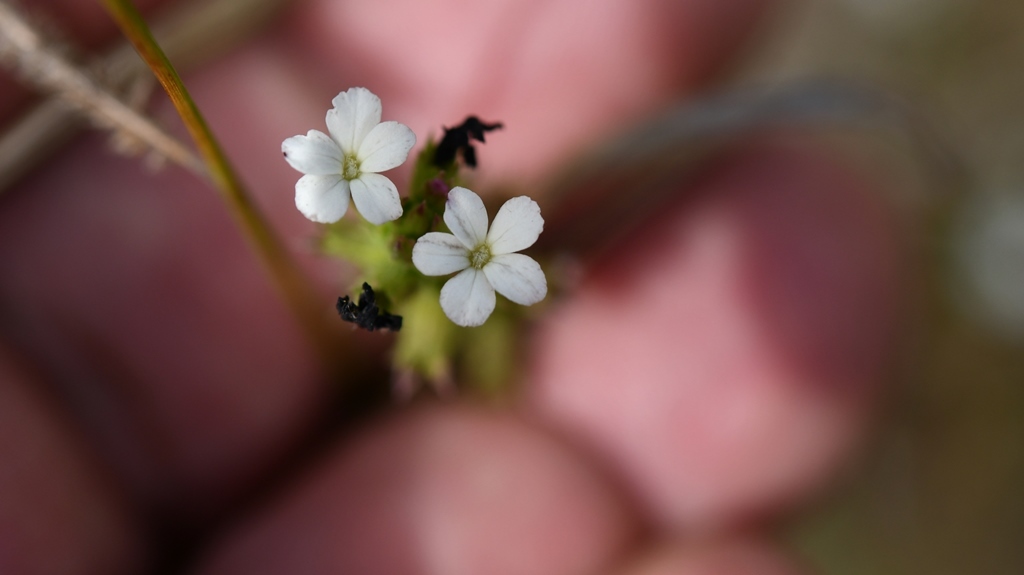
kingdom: Plantae
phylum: Tracheophyta
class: Magnoliopsida
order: Lamiales
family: Orobanchaceae
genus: Buchnera
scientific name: Buchnera pusilla
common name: Pygmy bluehearts
